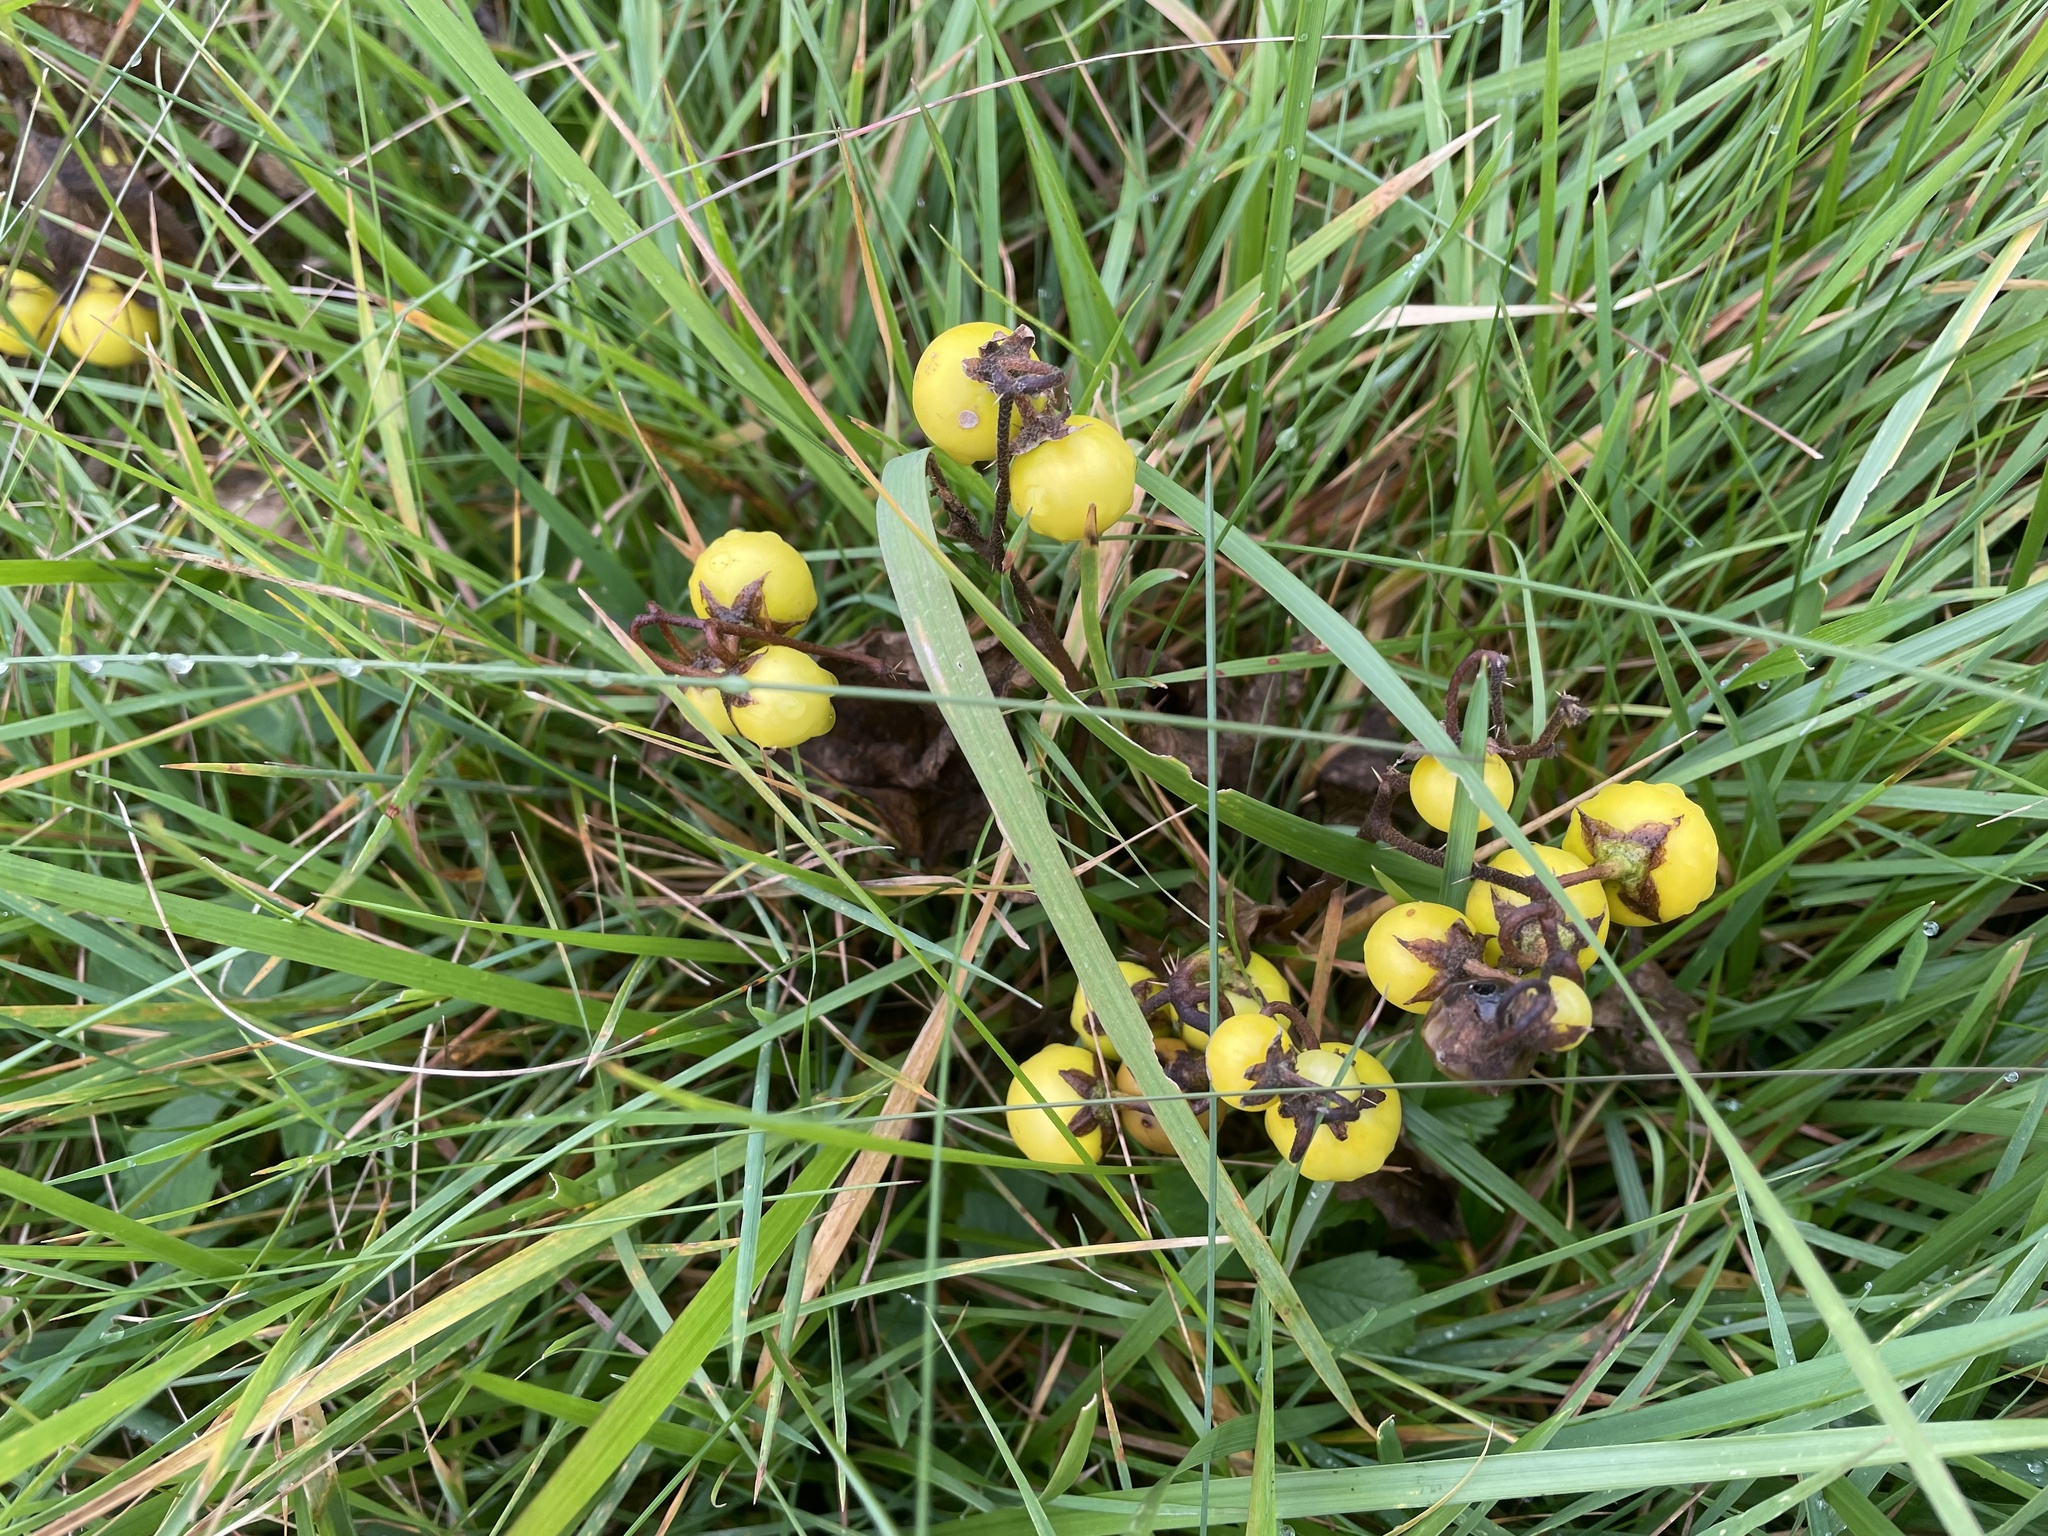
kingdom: Plantae
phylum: Tracheophyta
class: Magnoliopsida
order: Solanales
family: Solanaceae
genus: Solanum
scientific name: Solanum carolinense
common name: Horse-nettle
